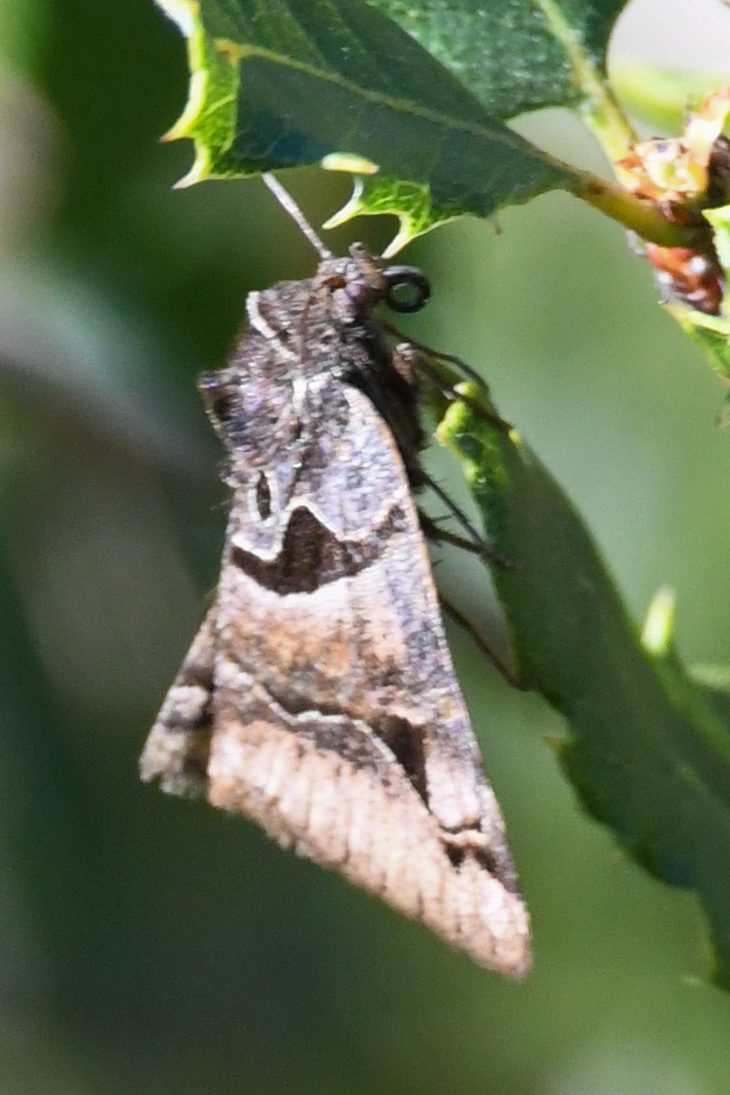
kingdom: Animalia
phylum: Arthropoda
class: Insecta
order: Lepidoptera
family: Erebidae
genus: Euclidia
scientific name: Euclidia ardita
